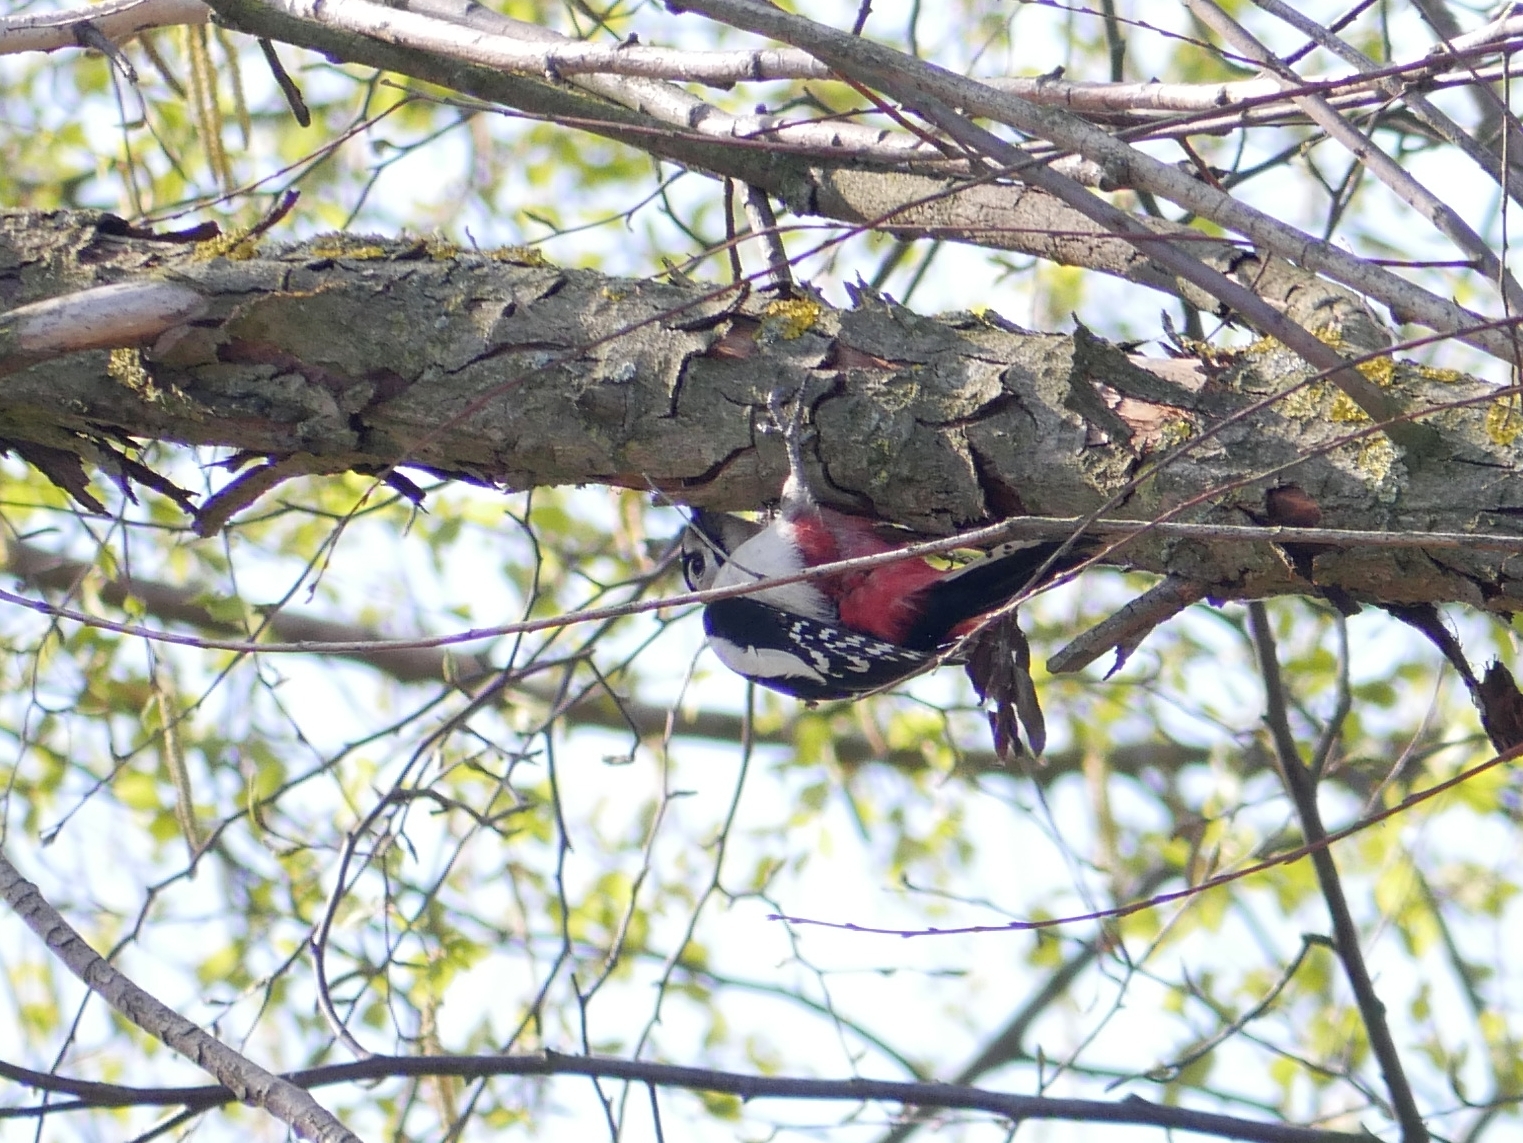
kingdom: Animalia
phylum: Chordata
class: Aves
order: Piciformes
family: Picidae
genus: Dendrocopos
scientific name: Dendrocopos major
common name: Great spotted woodpecker
